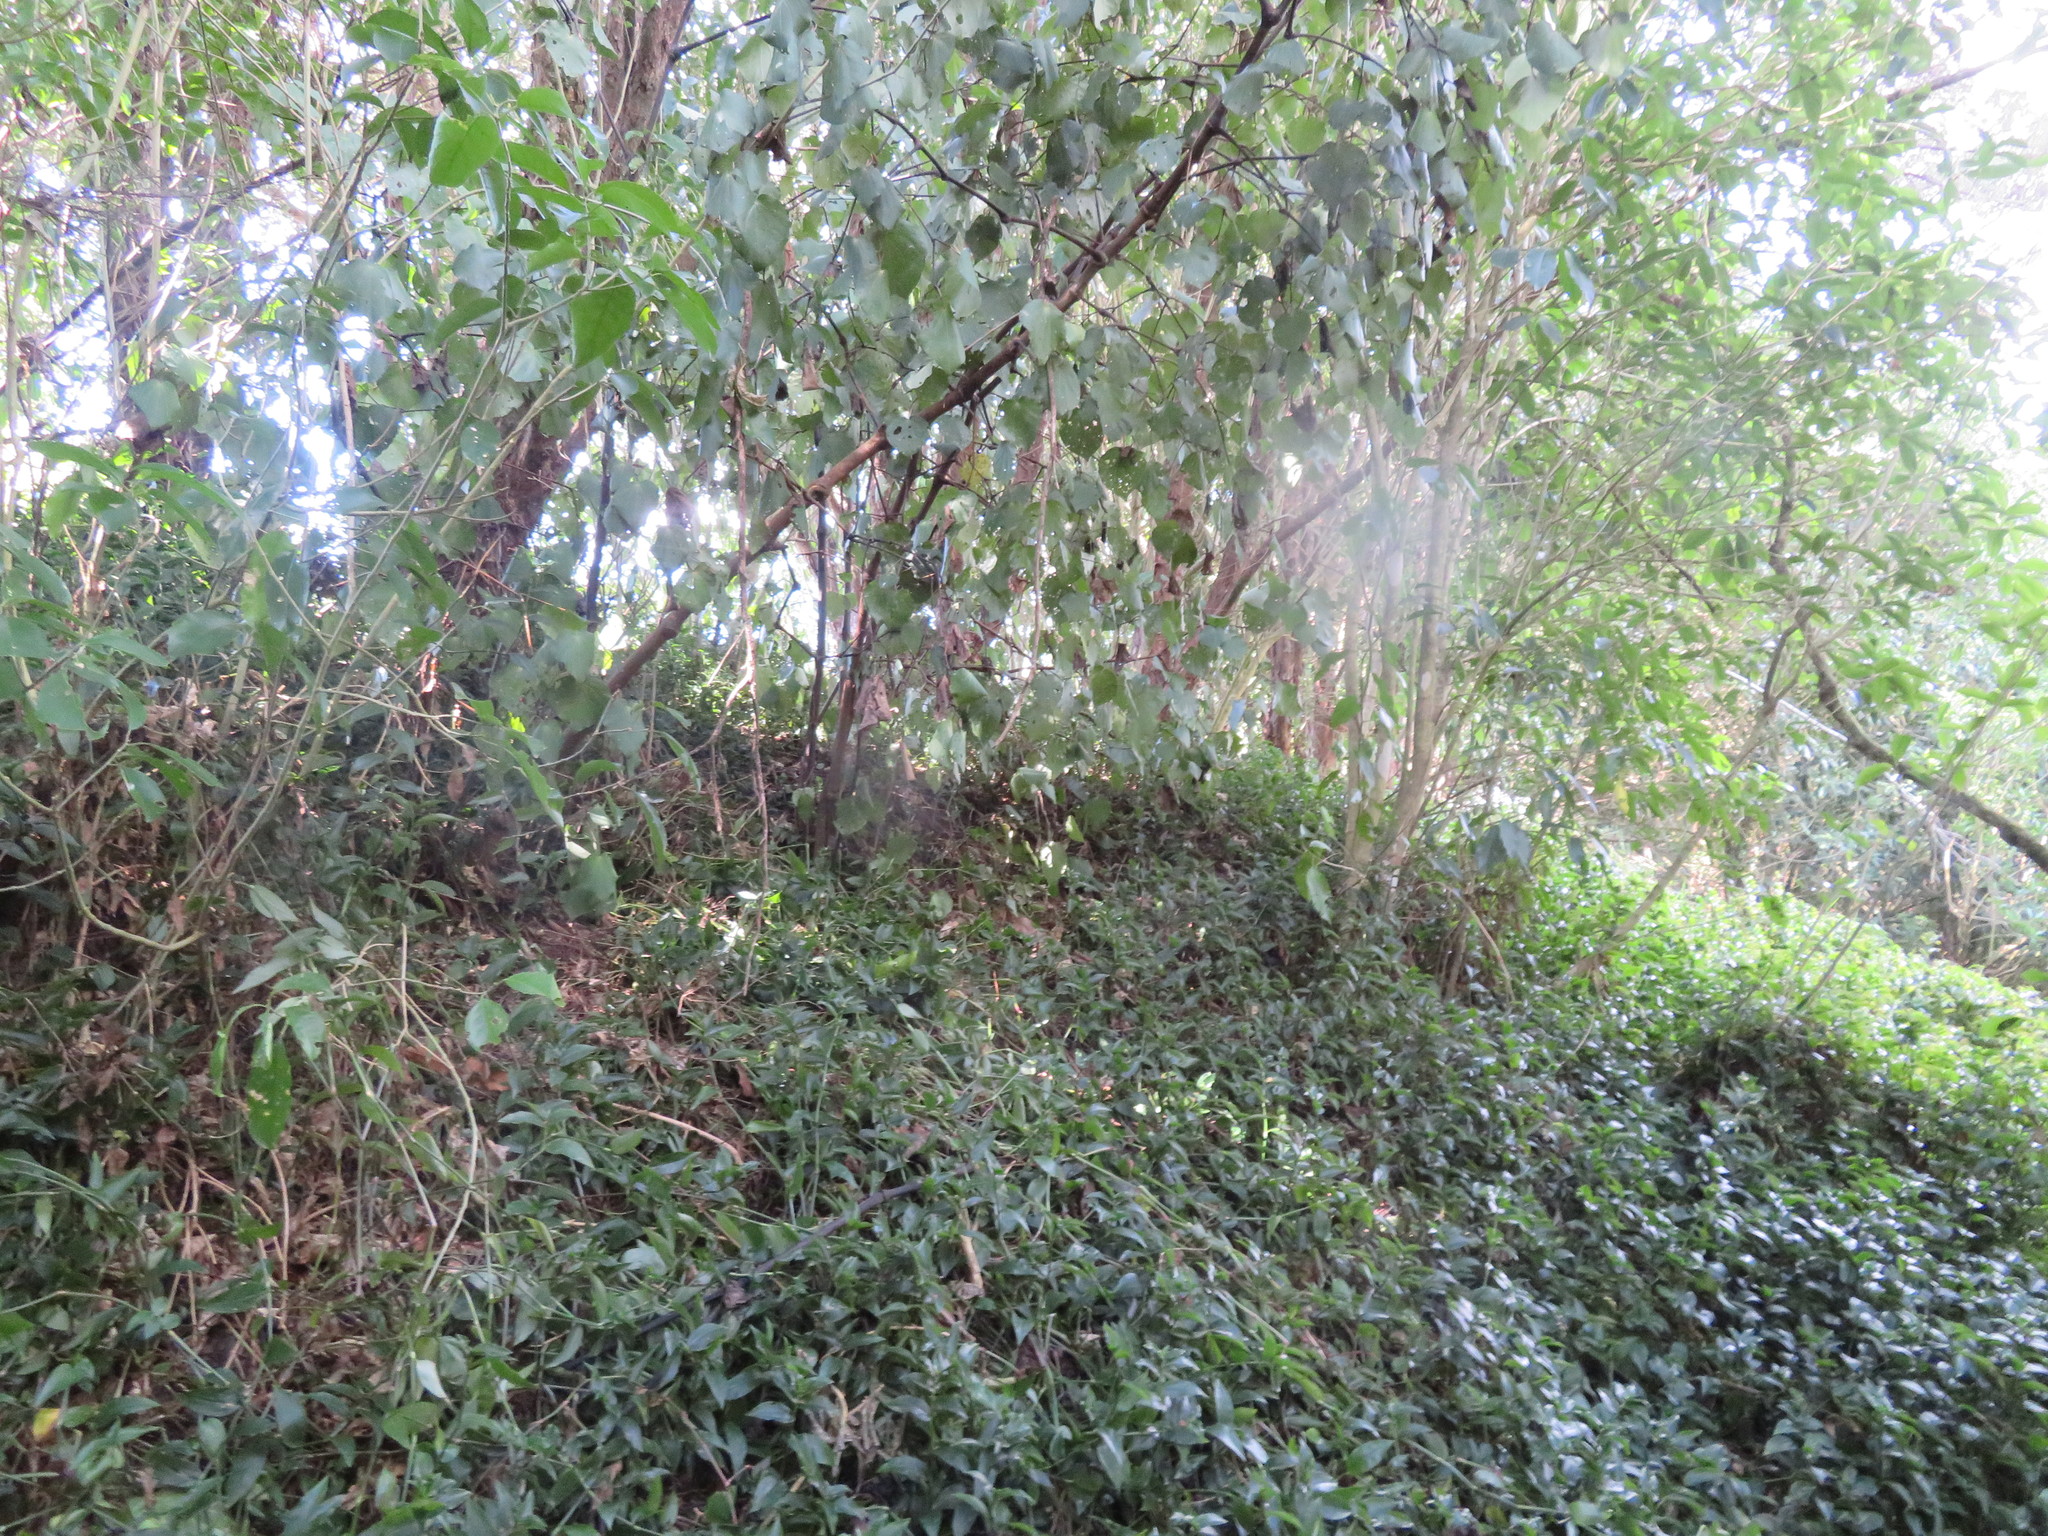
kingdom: Plantae
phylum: Tracheophyta
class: Magnoliopsida
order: Malpighiales
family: Violaceae
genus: Melicytus
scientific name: Melicytus ramiflorus
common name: Mahoe
